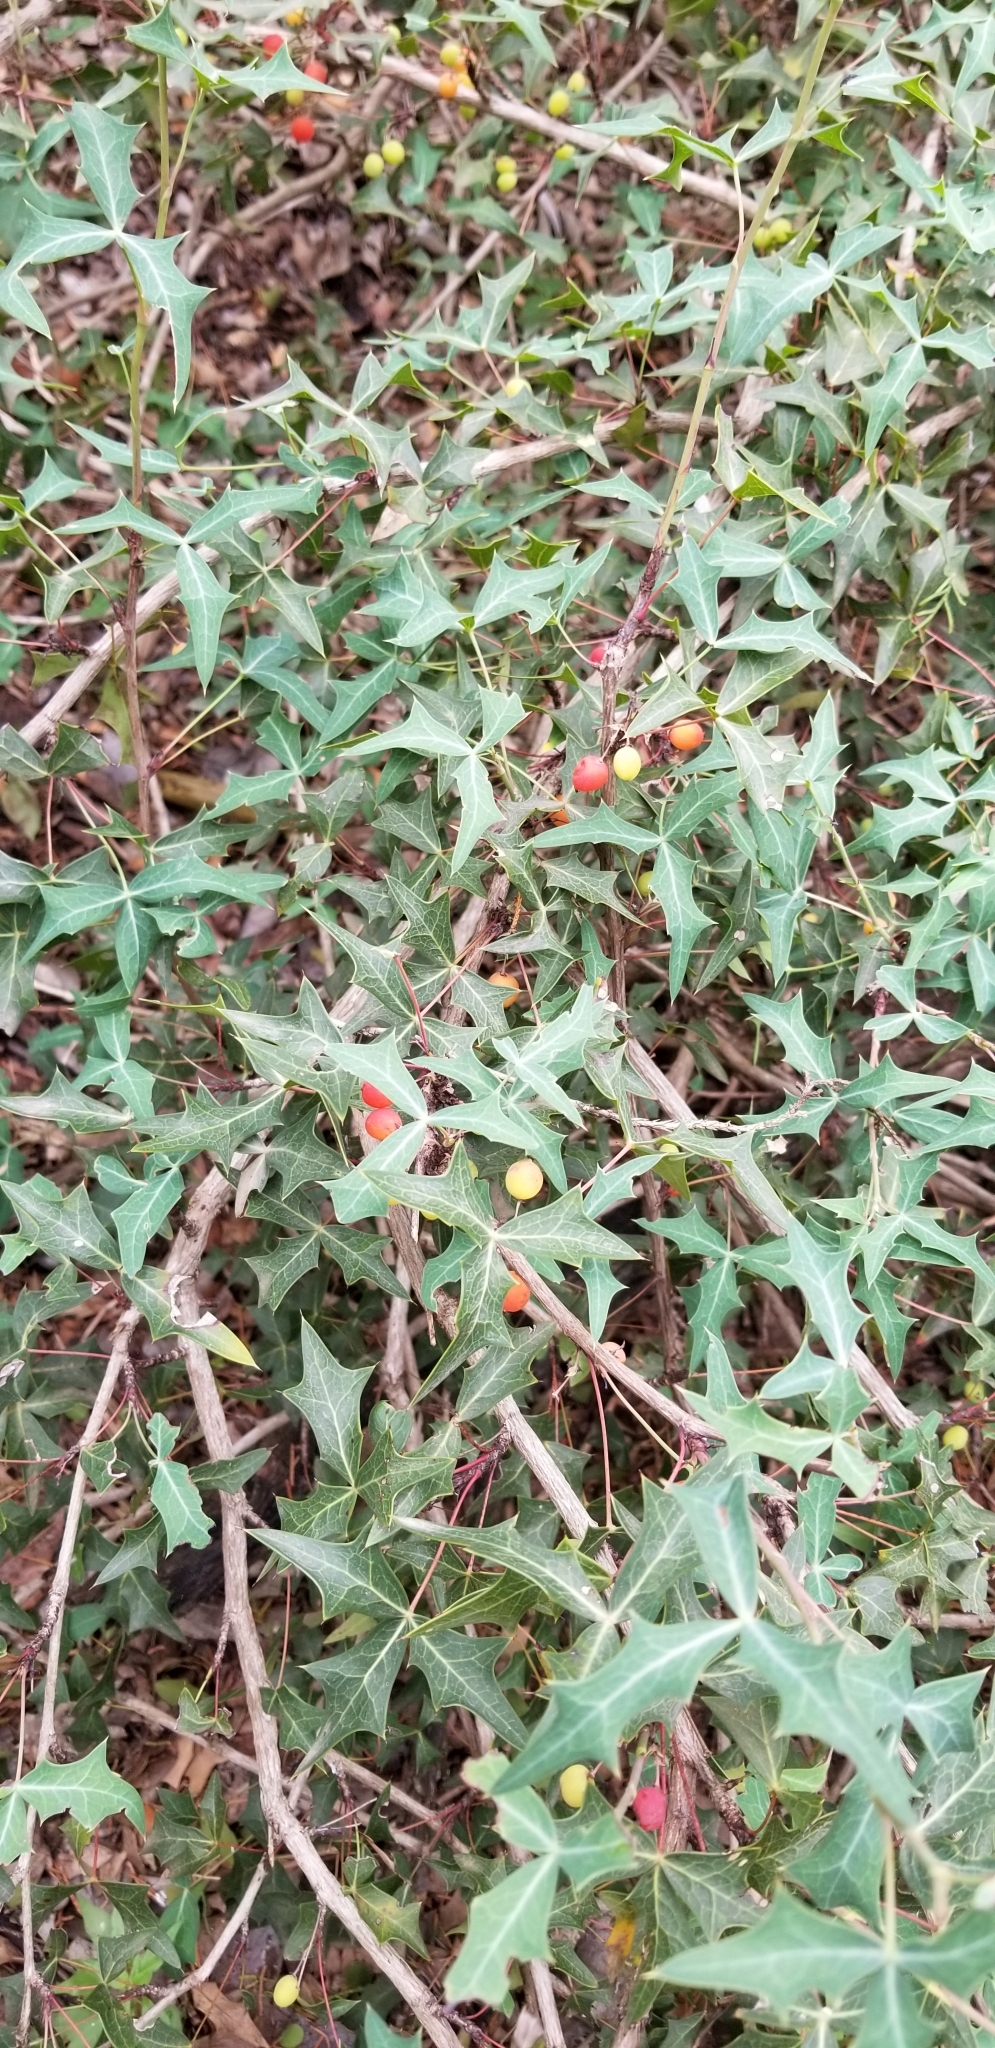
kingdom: Plantae
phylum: Tracheophyta
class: Magnoliopsida
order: Ranunculales
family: Berberidaceae
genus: Alloberberis
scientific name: Alloberberis trifoliolata
